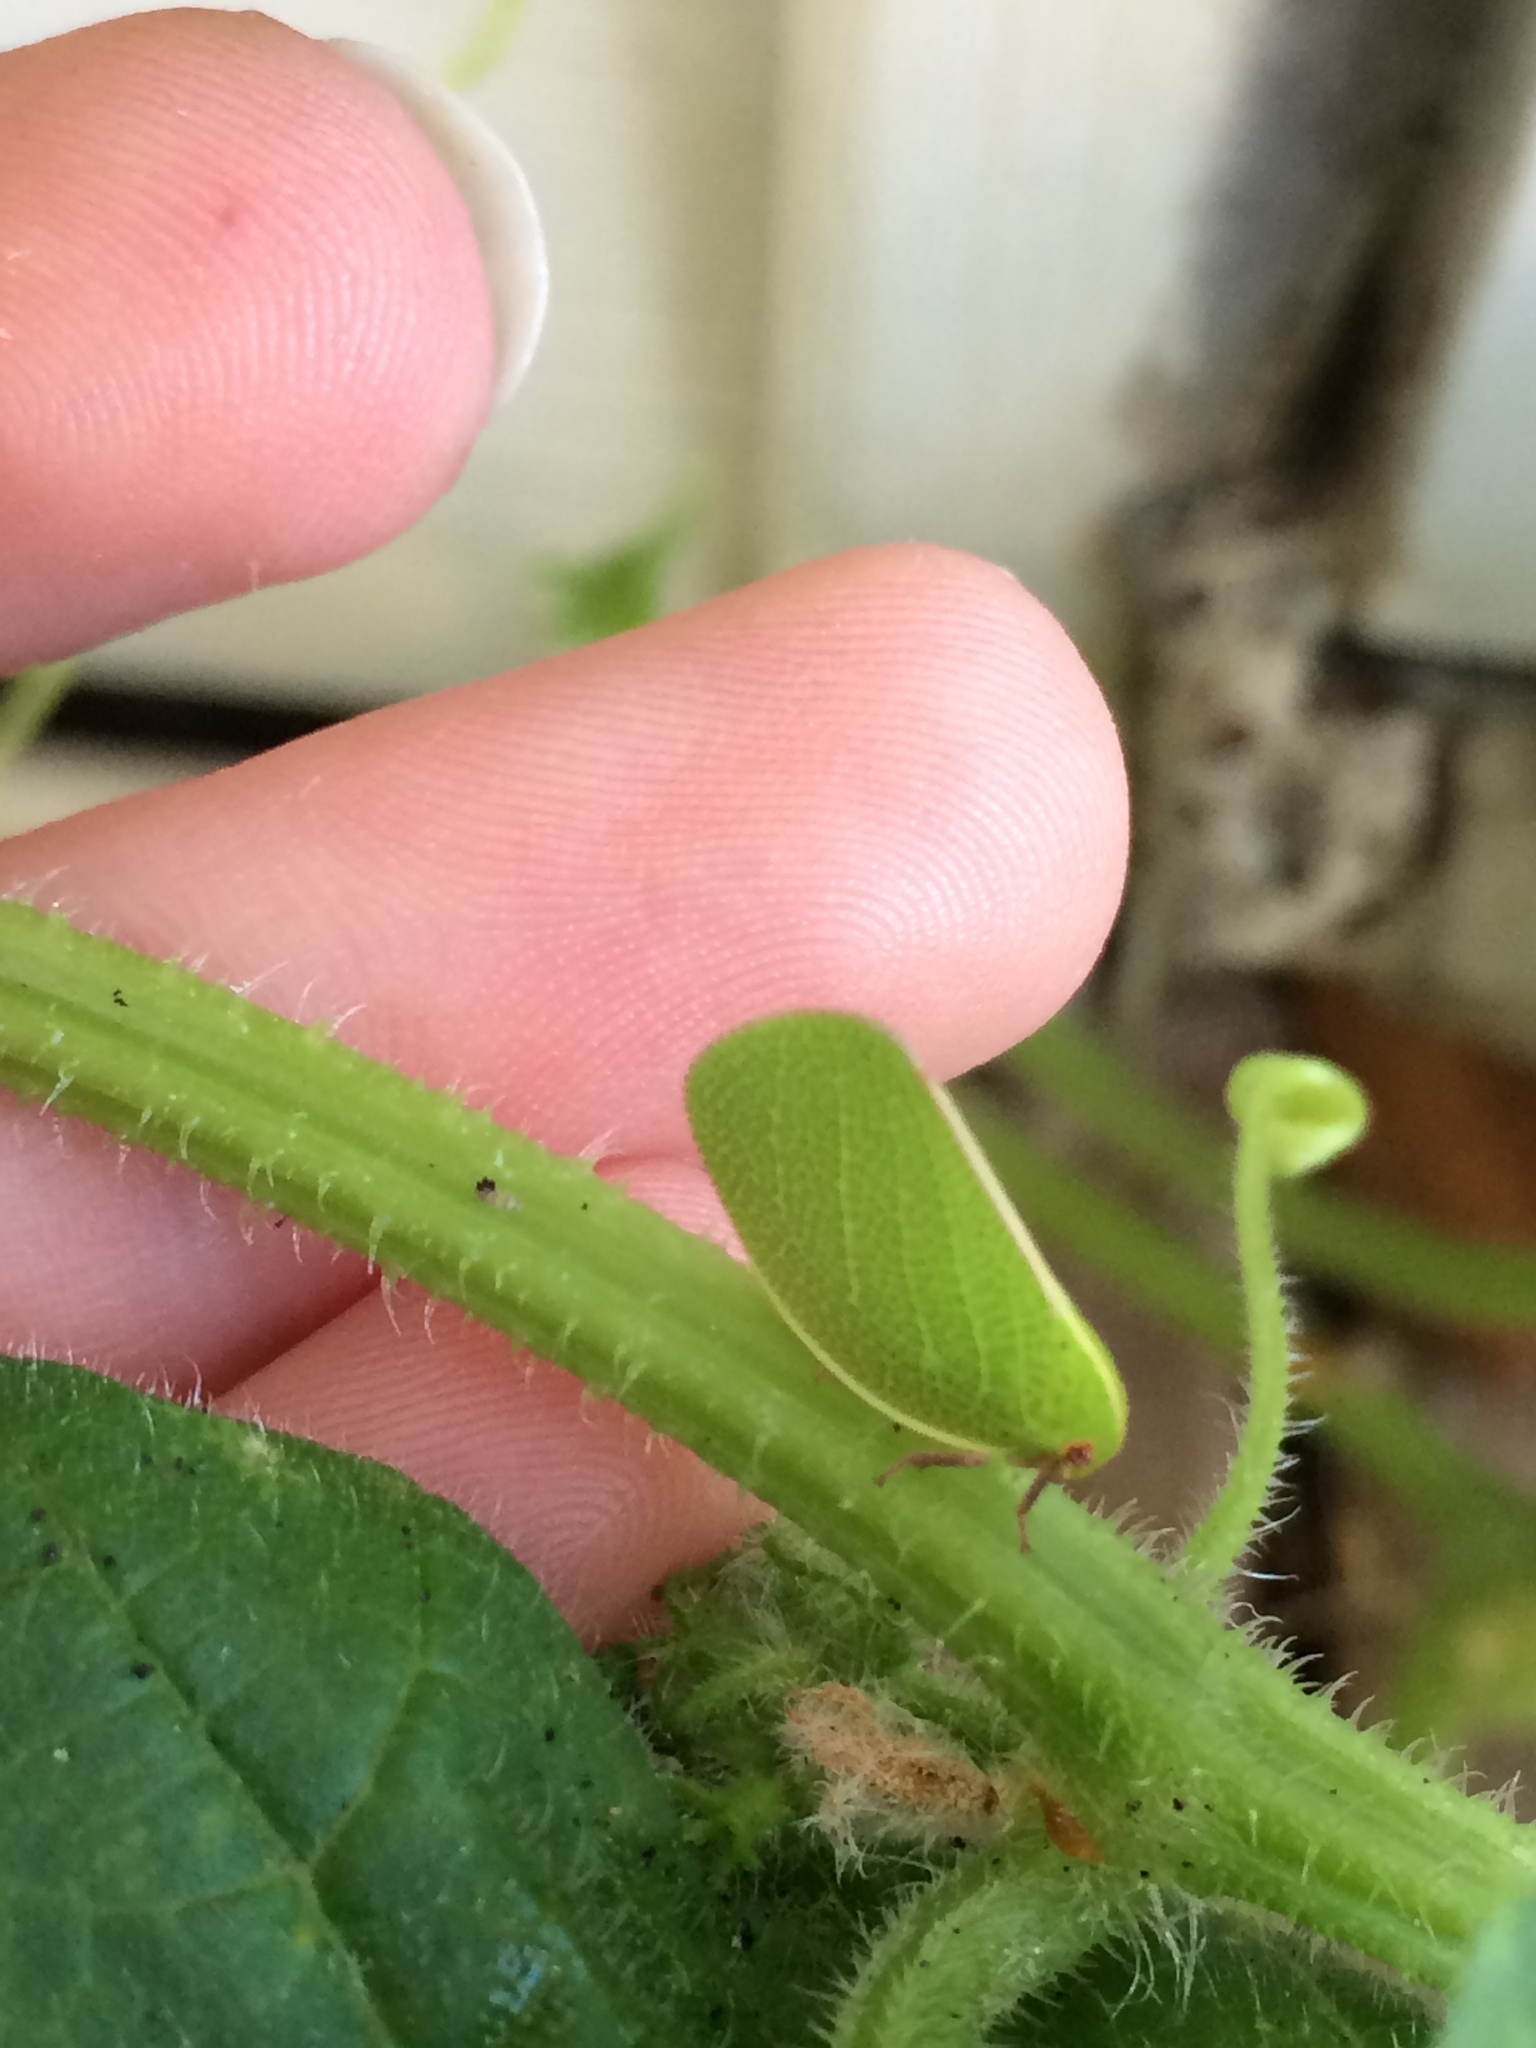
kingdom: Animalia
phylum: Arthropoda
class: Insecta
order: Hemiptera
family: Acanaloniidae
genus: Acanalonia
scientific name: Acanalonia servillei
